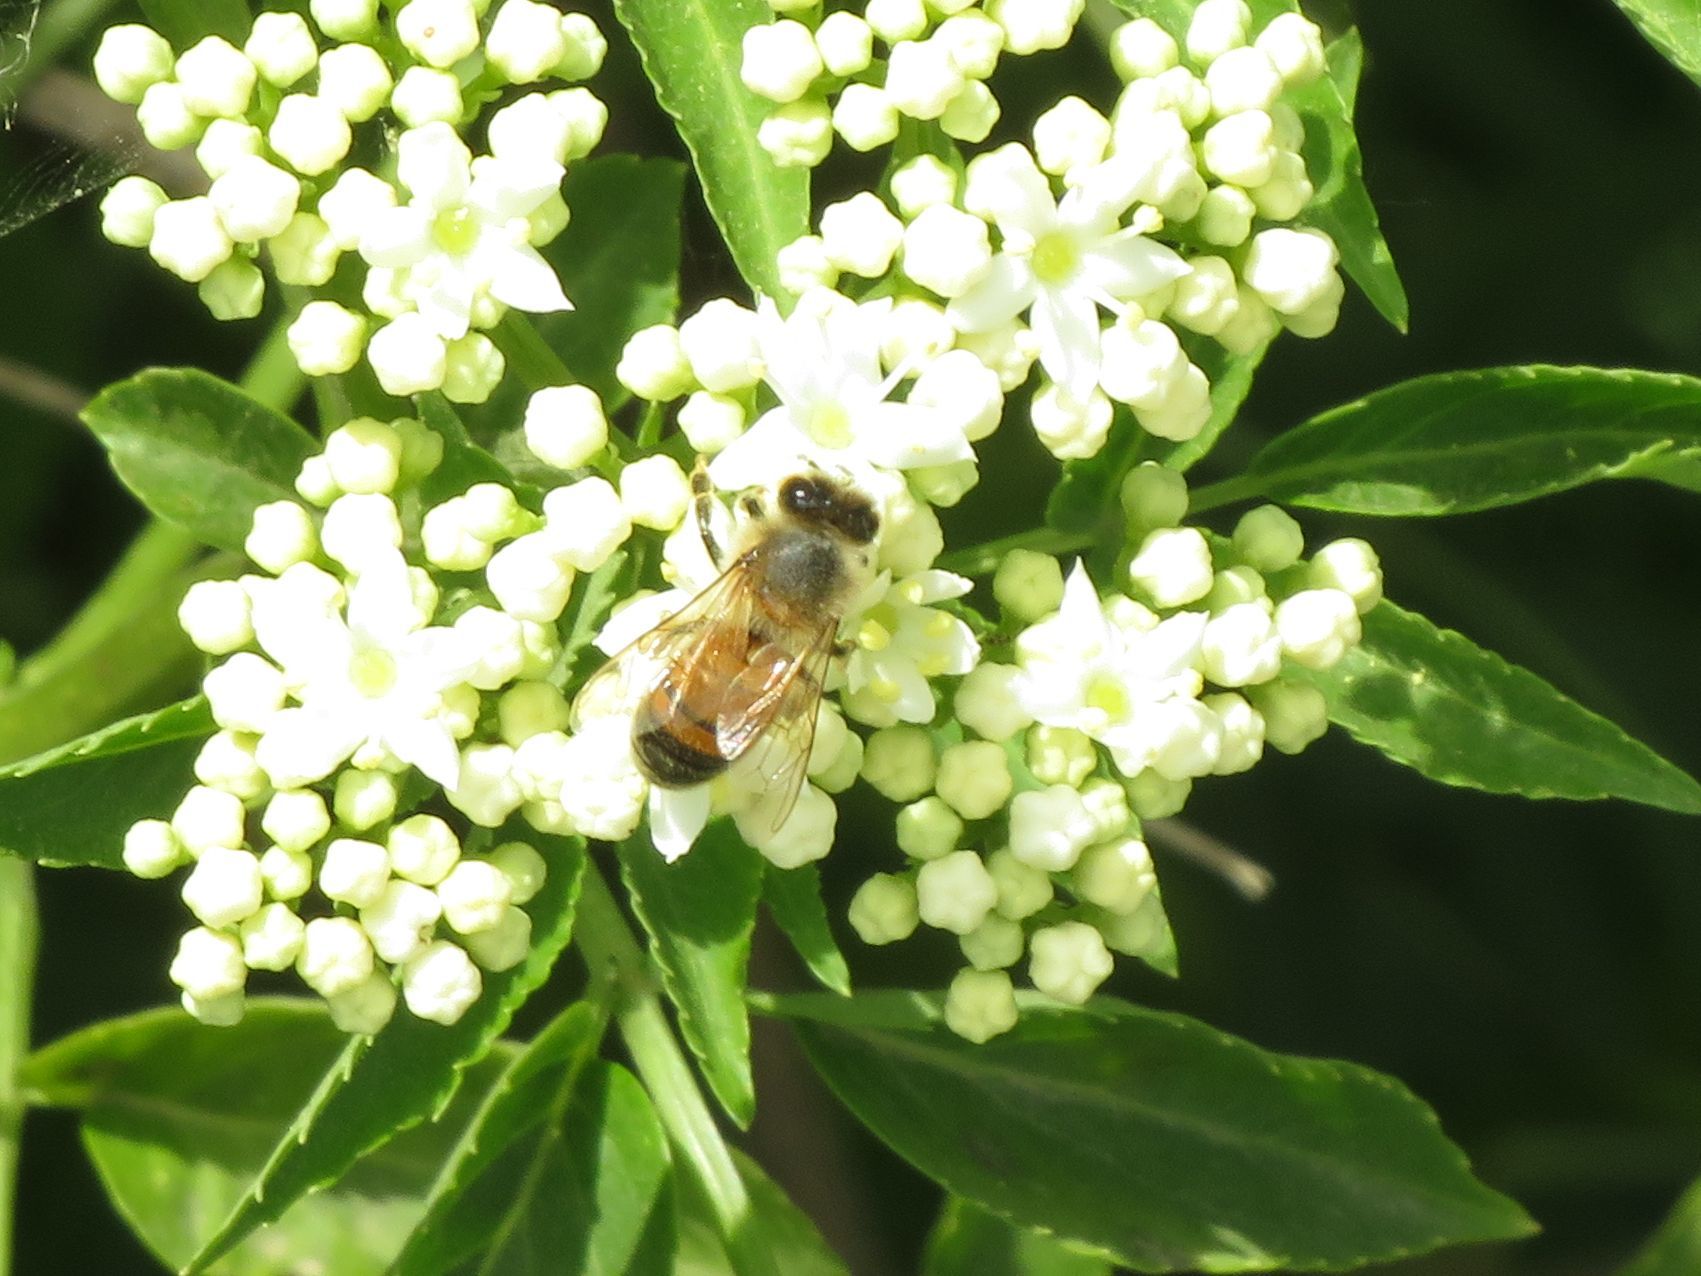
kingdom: Animalia
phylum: Arthropoda
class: Insecta
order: Hymenoptera
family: Apidae
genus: Apis
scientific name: Apis mellifera
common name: Honey bee
